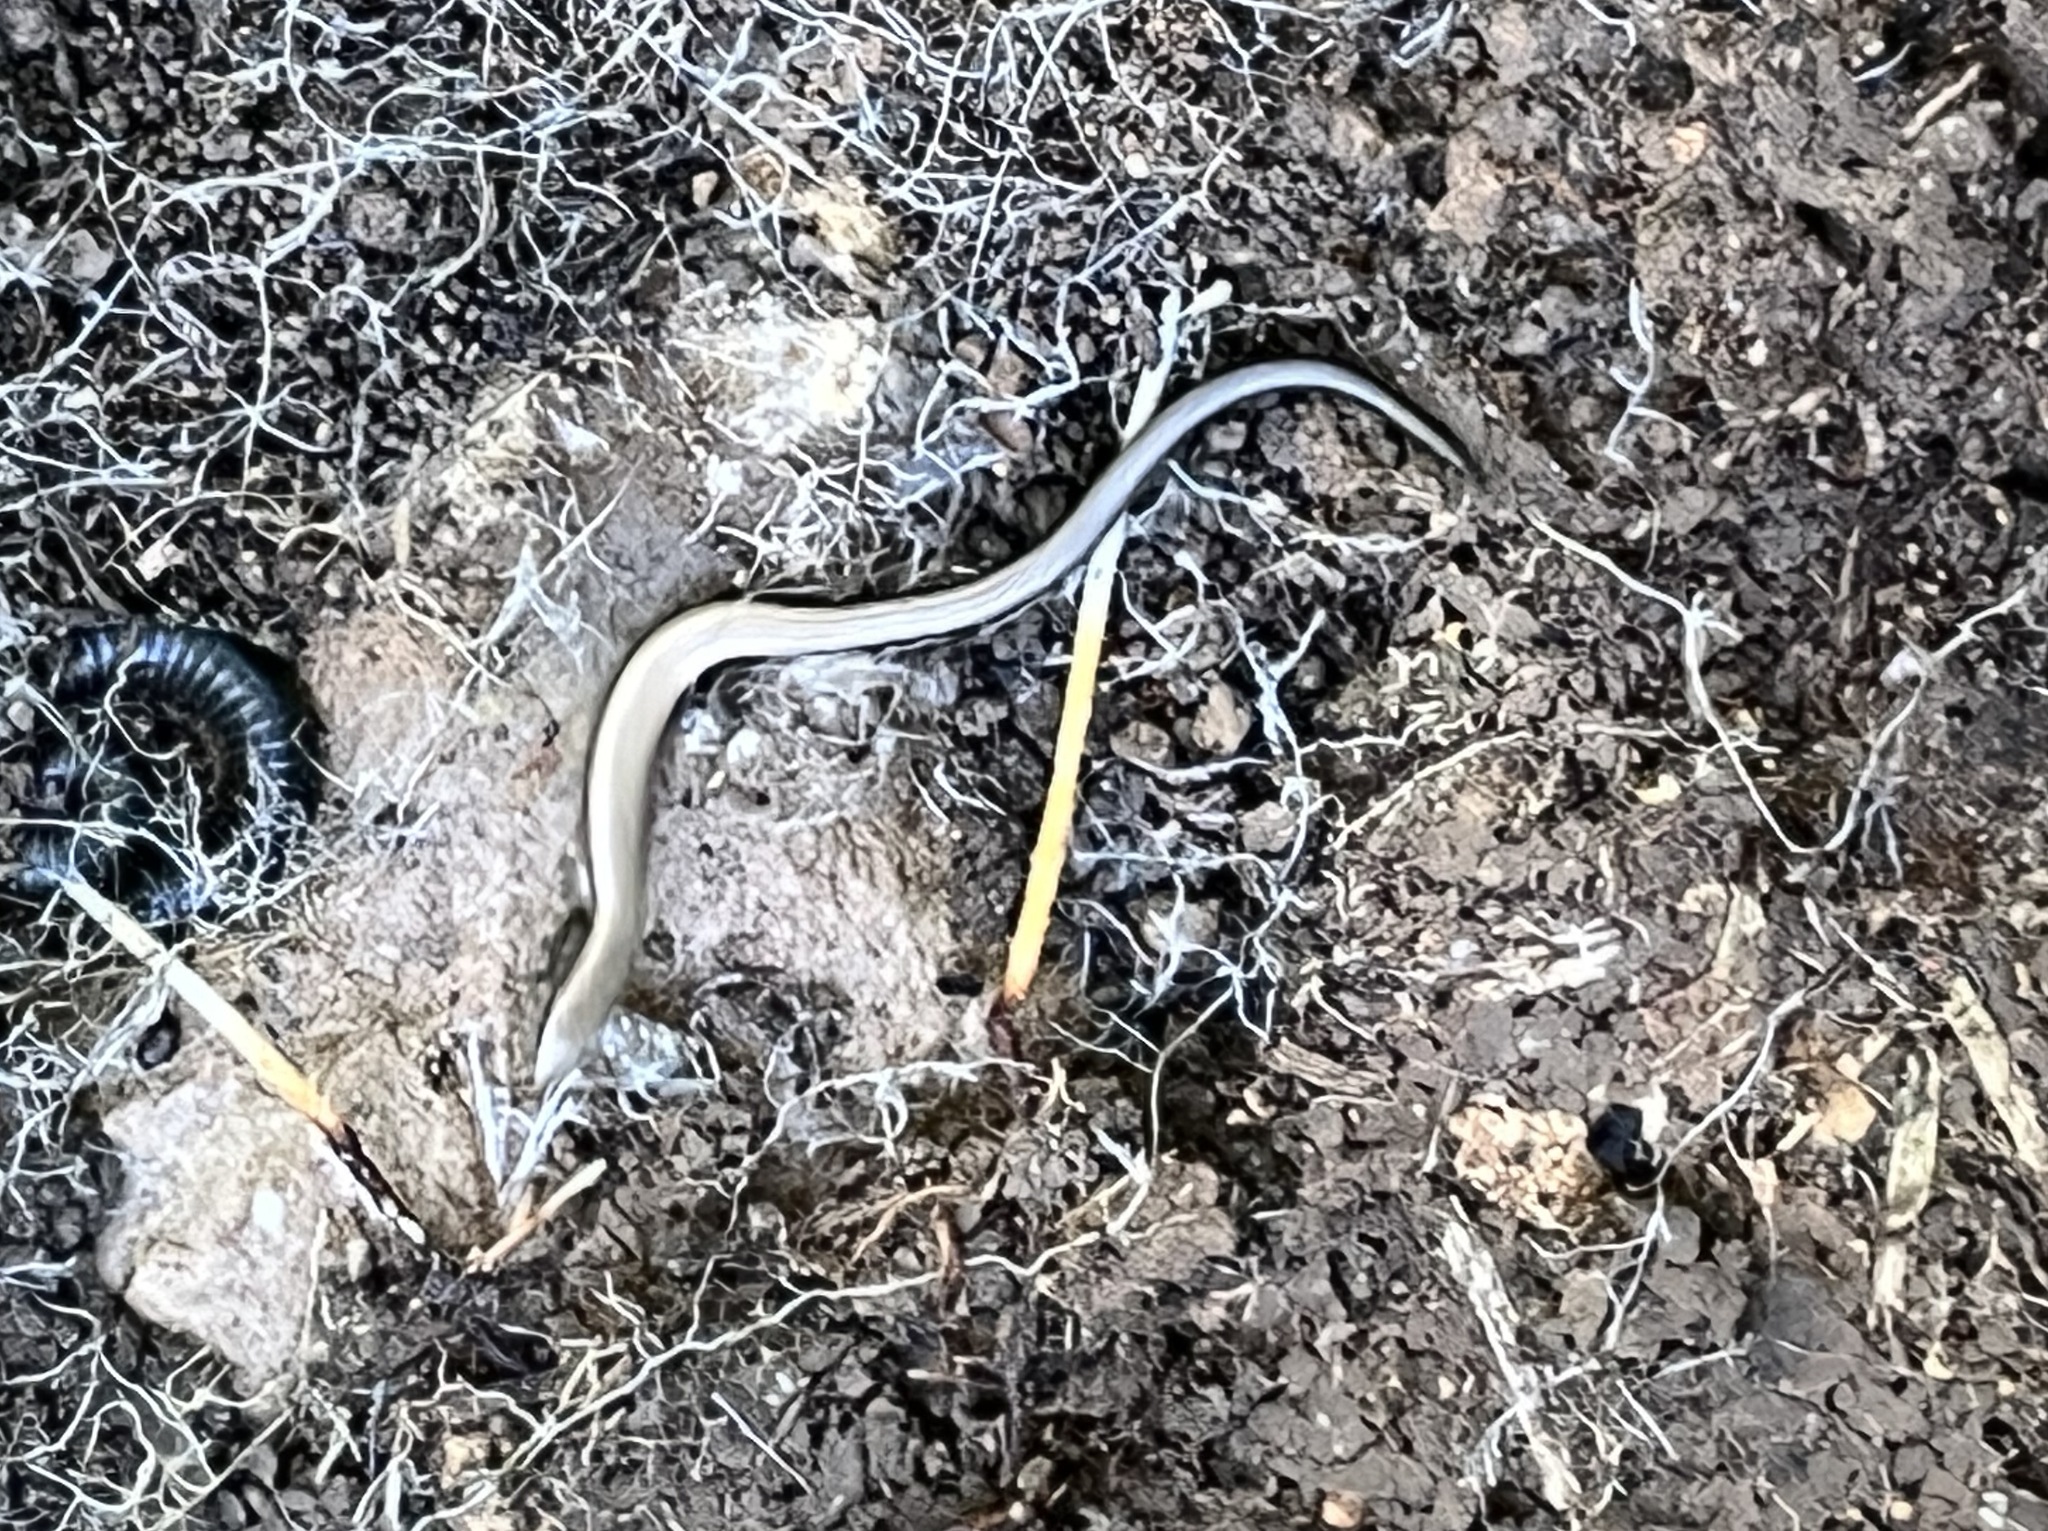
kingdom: Animalia
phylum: Chordata
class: Squamata
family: Scincidae
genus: Ablepharus
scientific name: Ablepharus rueppellii
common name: Rueppel’s snake-eyed skink
